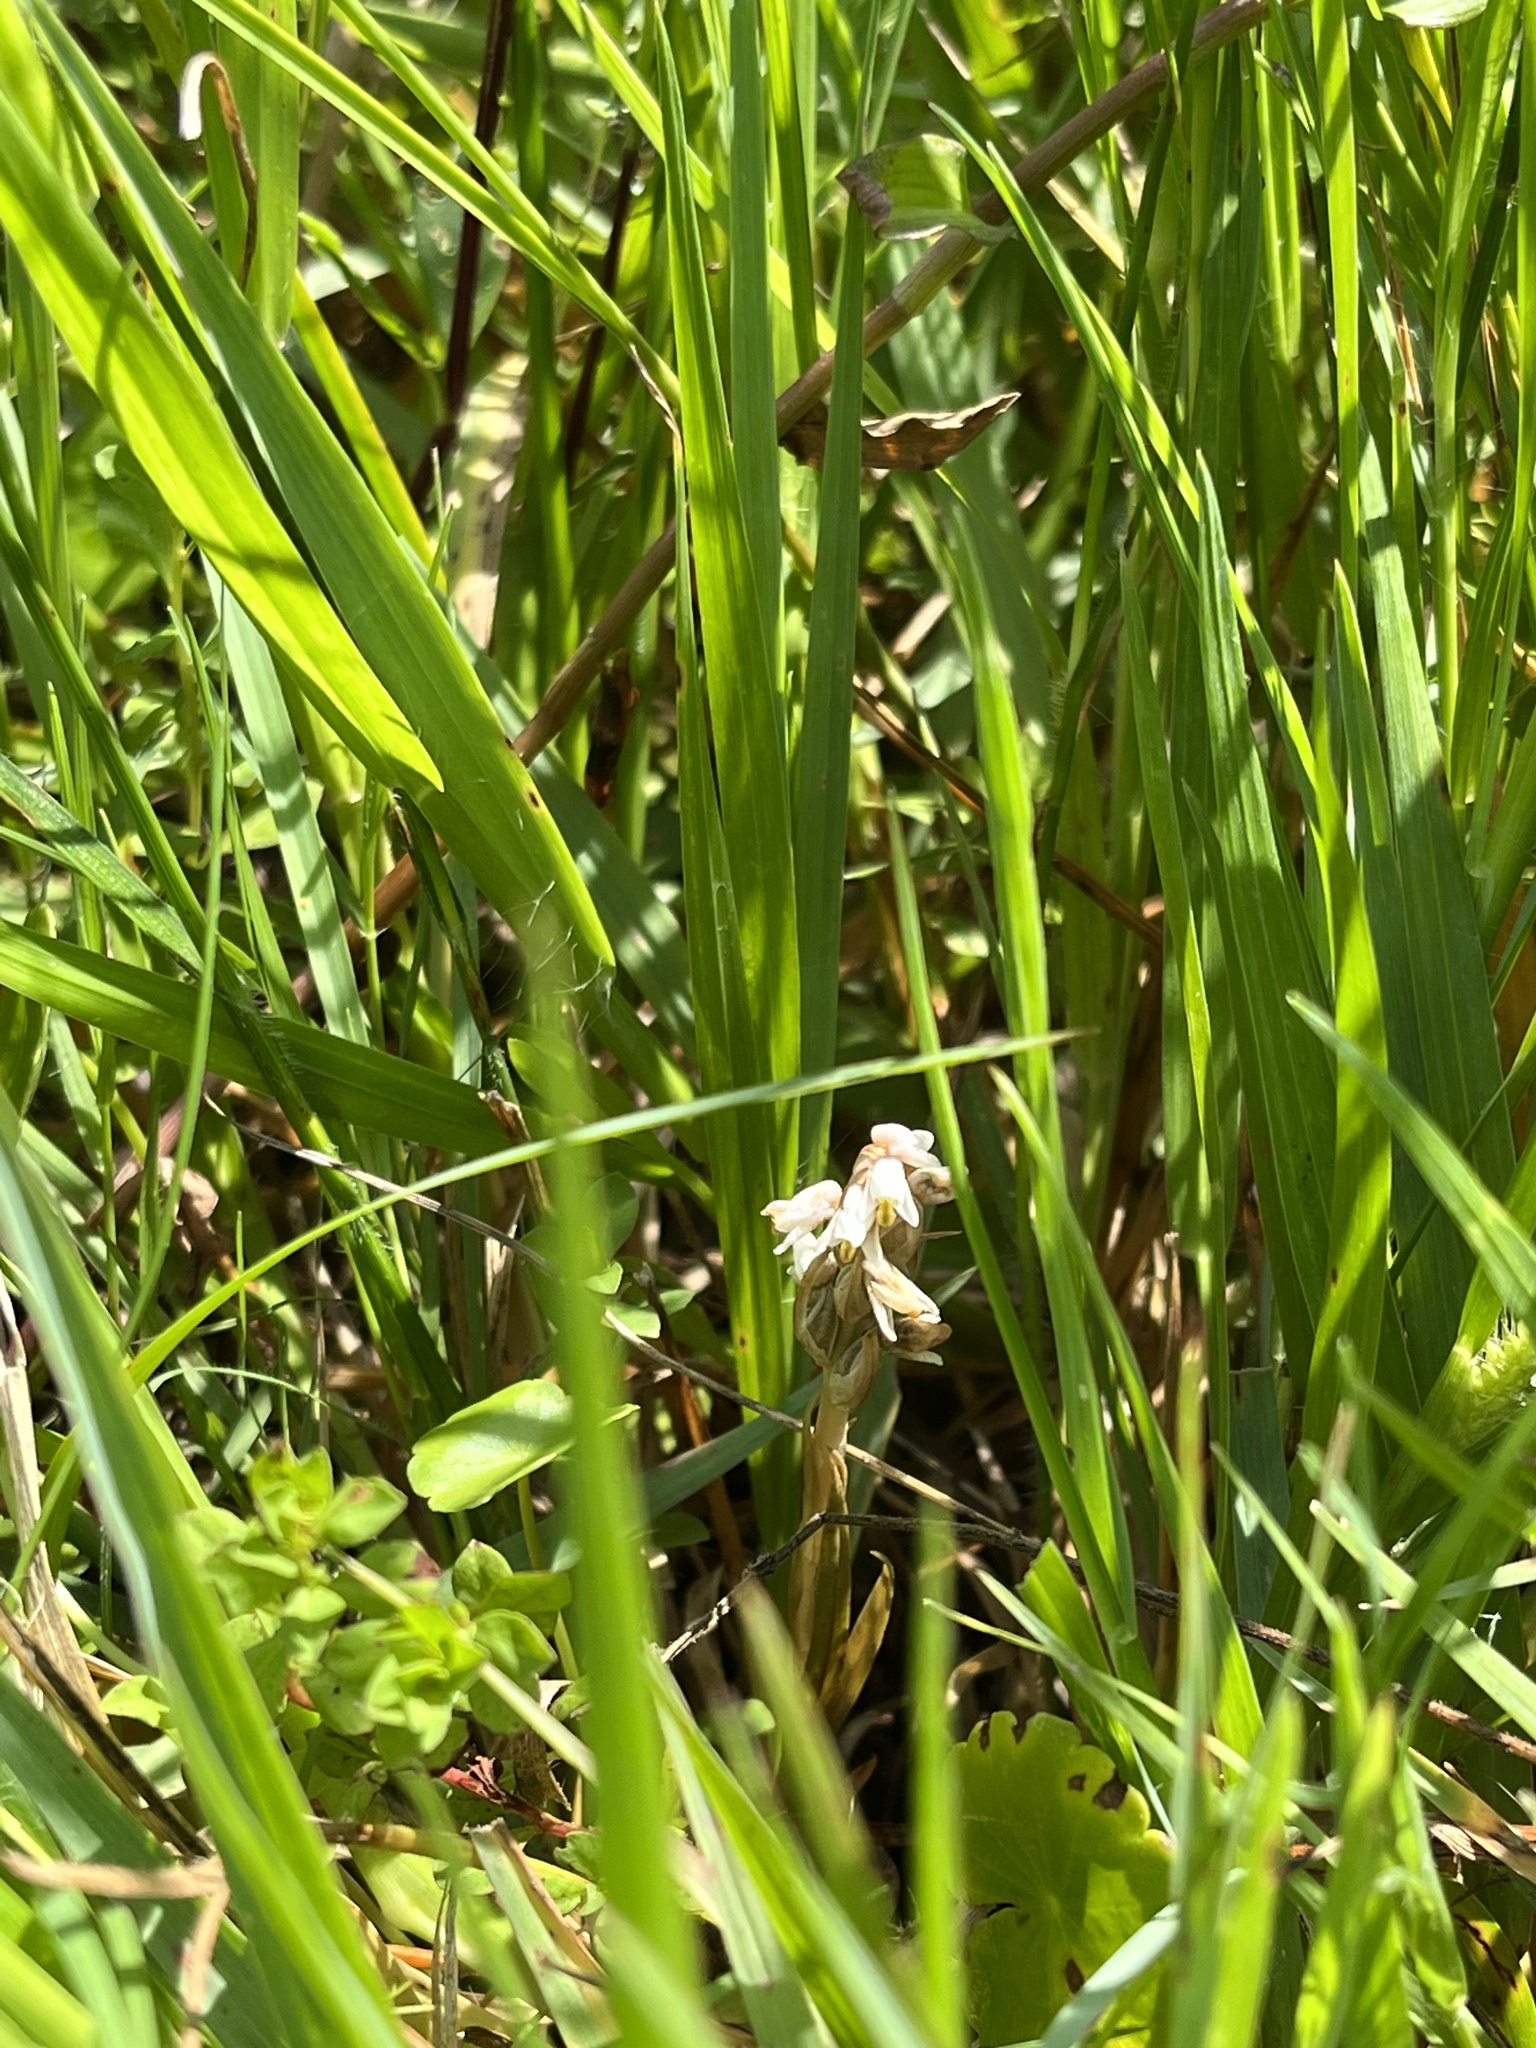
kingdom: Plantae
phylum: Tracheophyta
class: Liliopsida
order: Asparagales
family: Orchidaceae
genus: Zeuxine
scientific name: Zeuxine strateumatica
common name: Soldier's orchid
